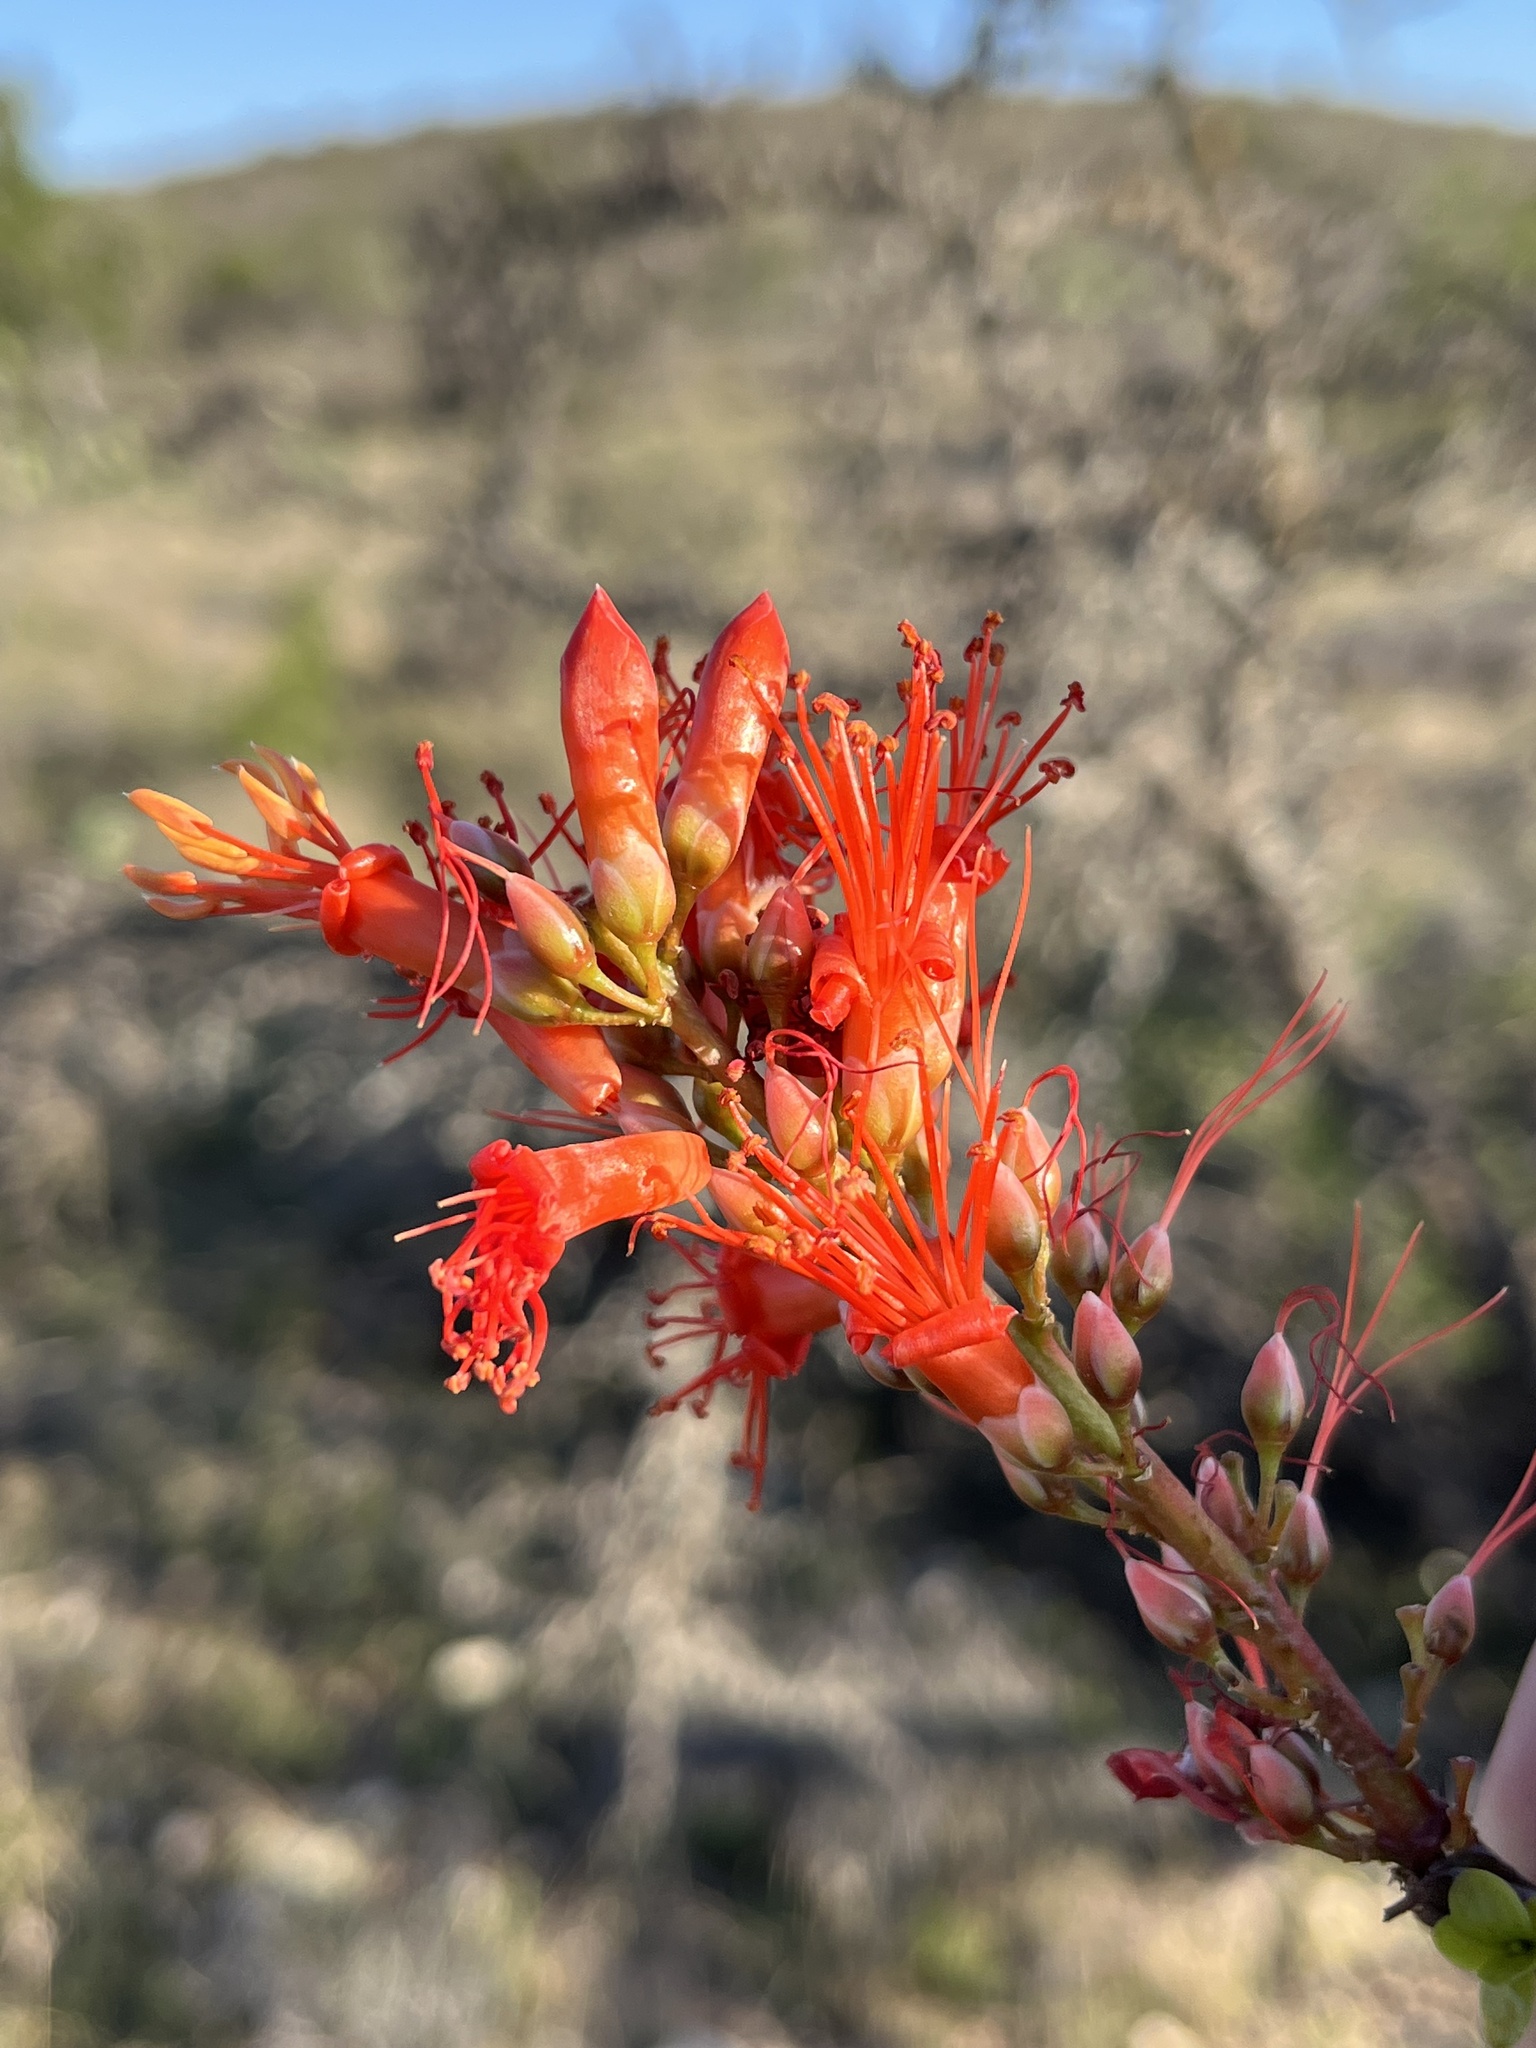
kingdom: Plantae
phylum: Tracheophyta
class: Magnoliopsida
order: Ericales
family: Fouquieriaceae
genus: Fouquieria
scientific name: Fouquieria splendens
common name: Vine-cactus
